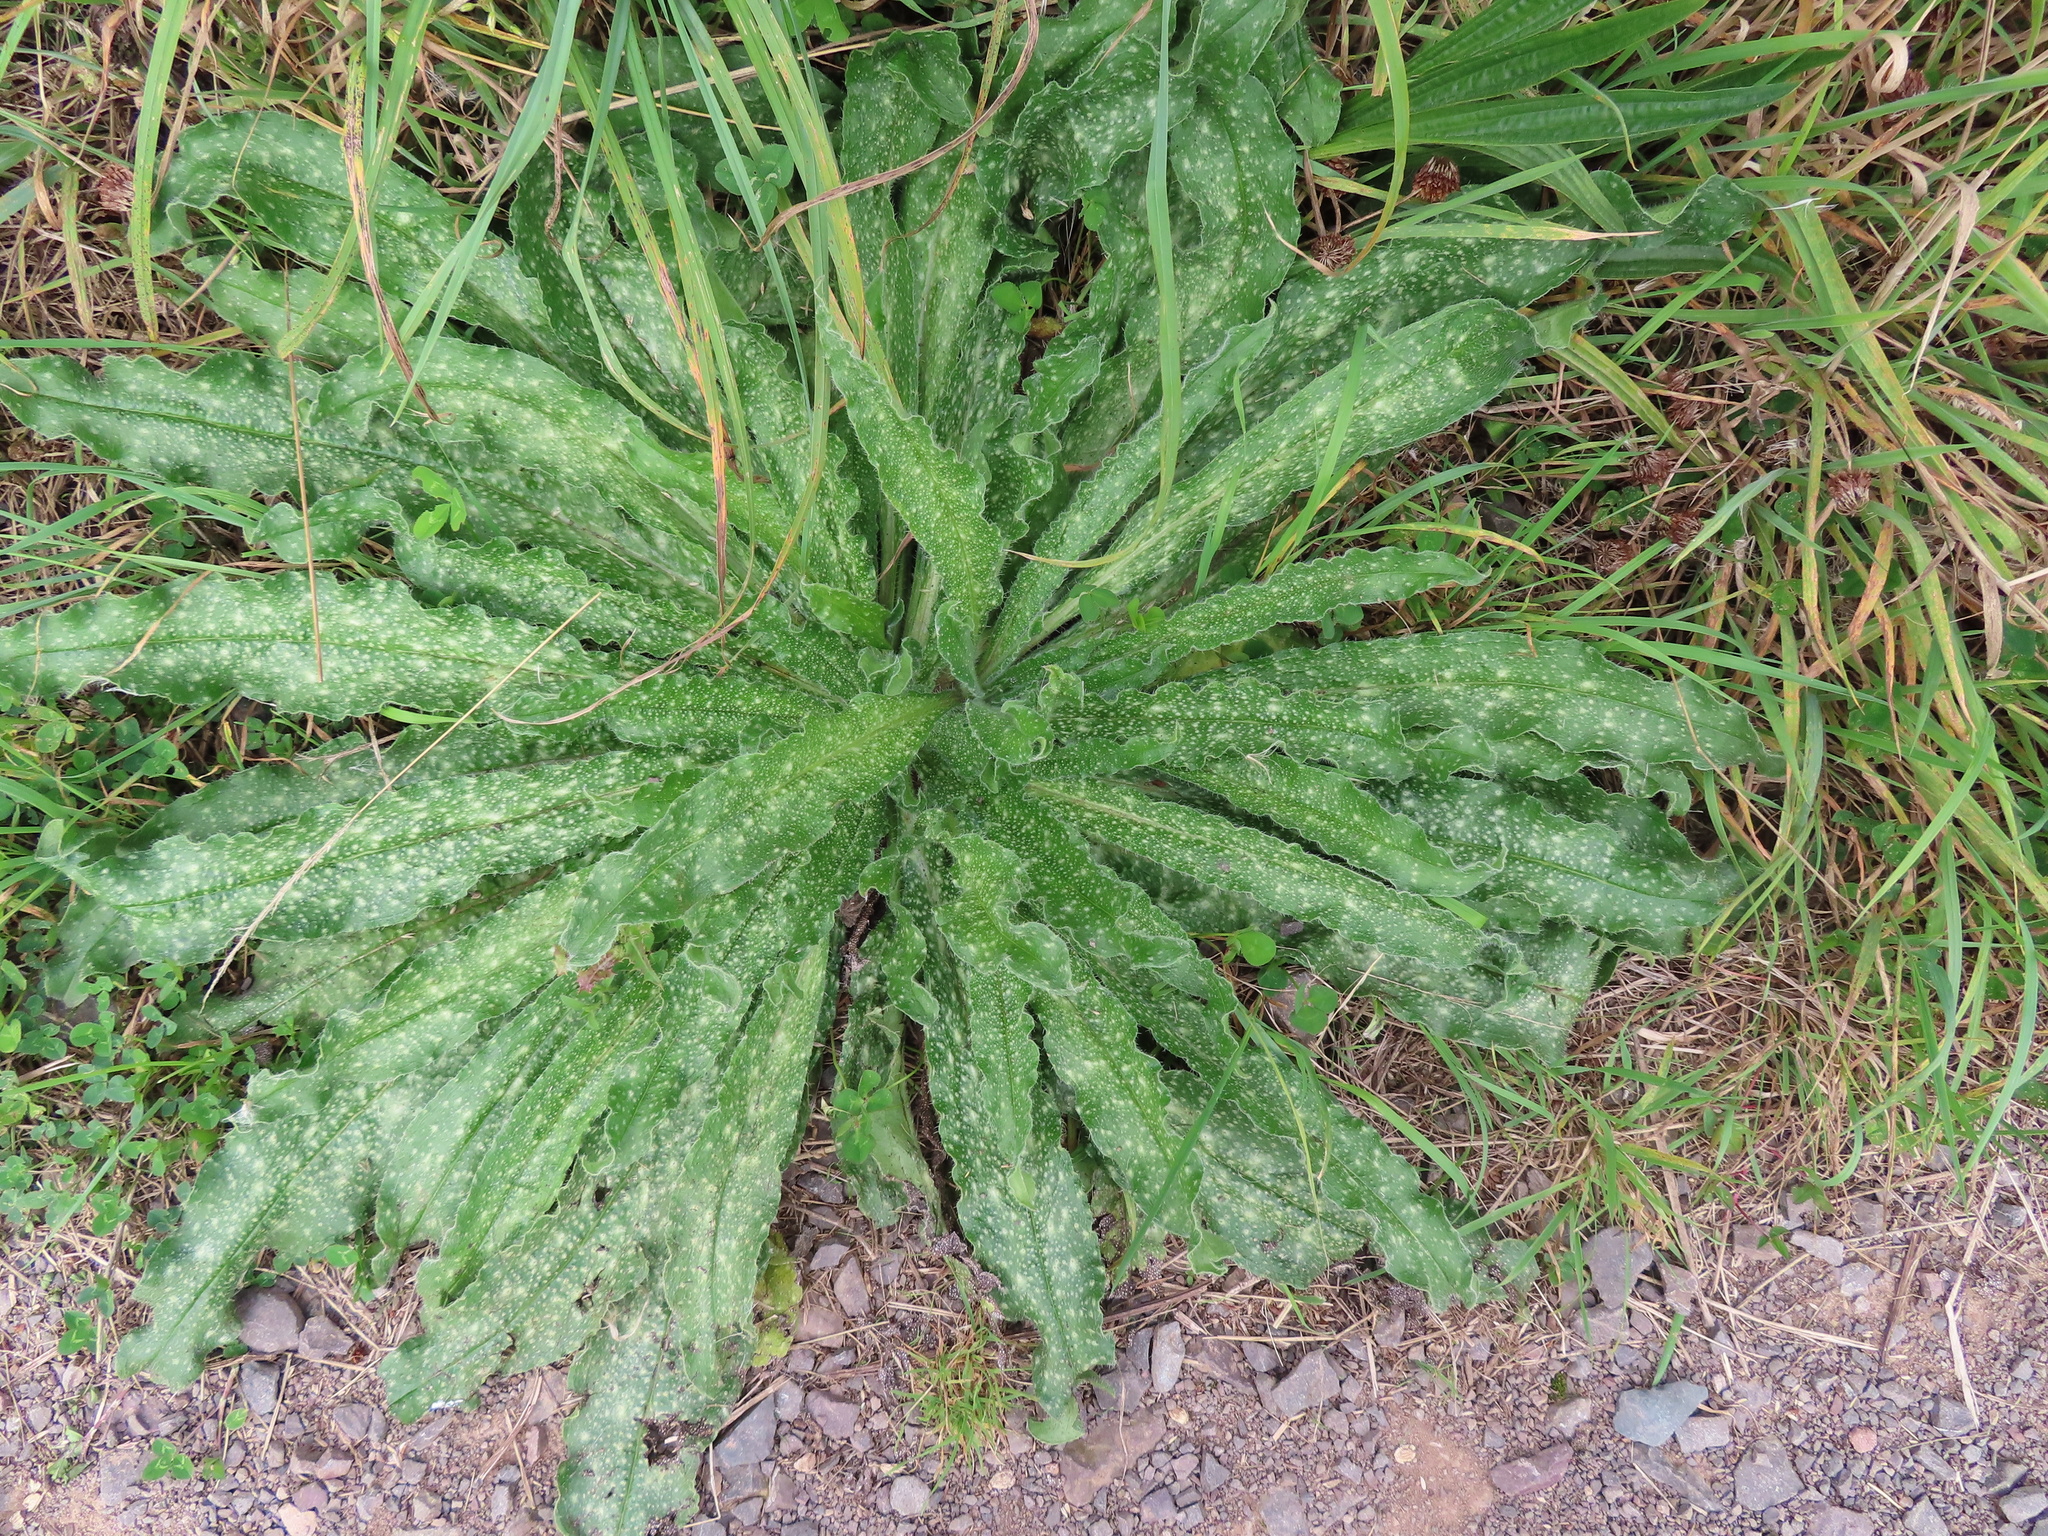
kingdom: Plantae
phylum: Tracheophyta
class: Magnoliopsida
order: Boraginales
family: Boraginaceae
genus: Echium
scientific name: Echium vulgare
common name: Common viper's bugloss
